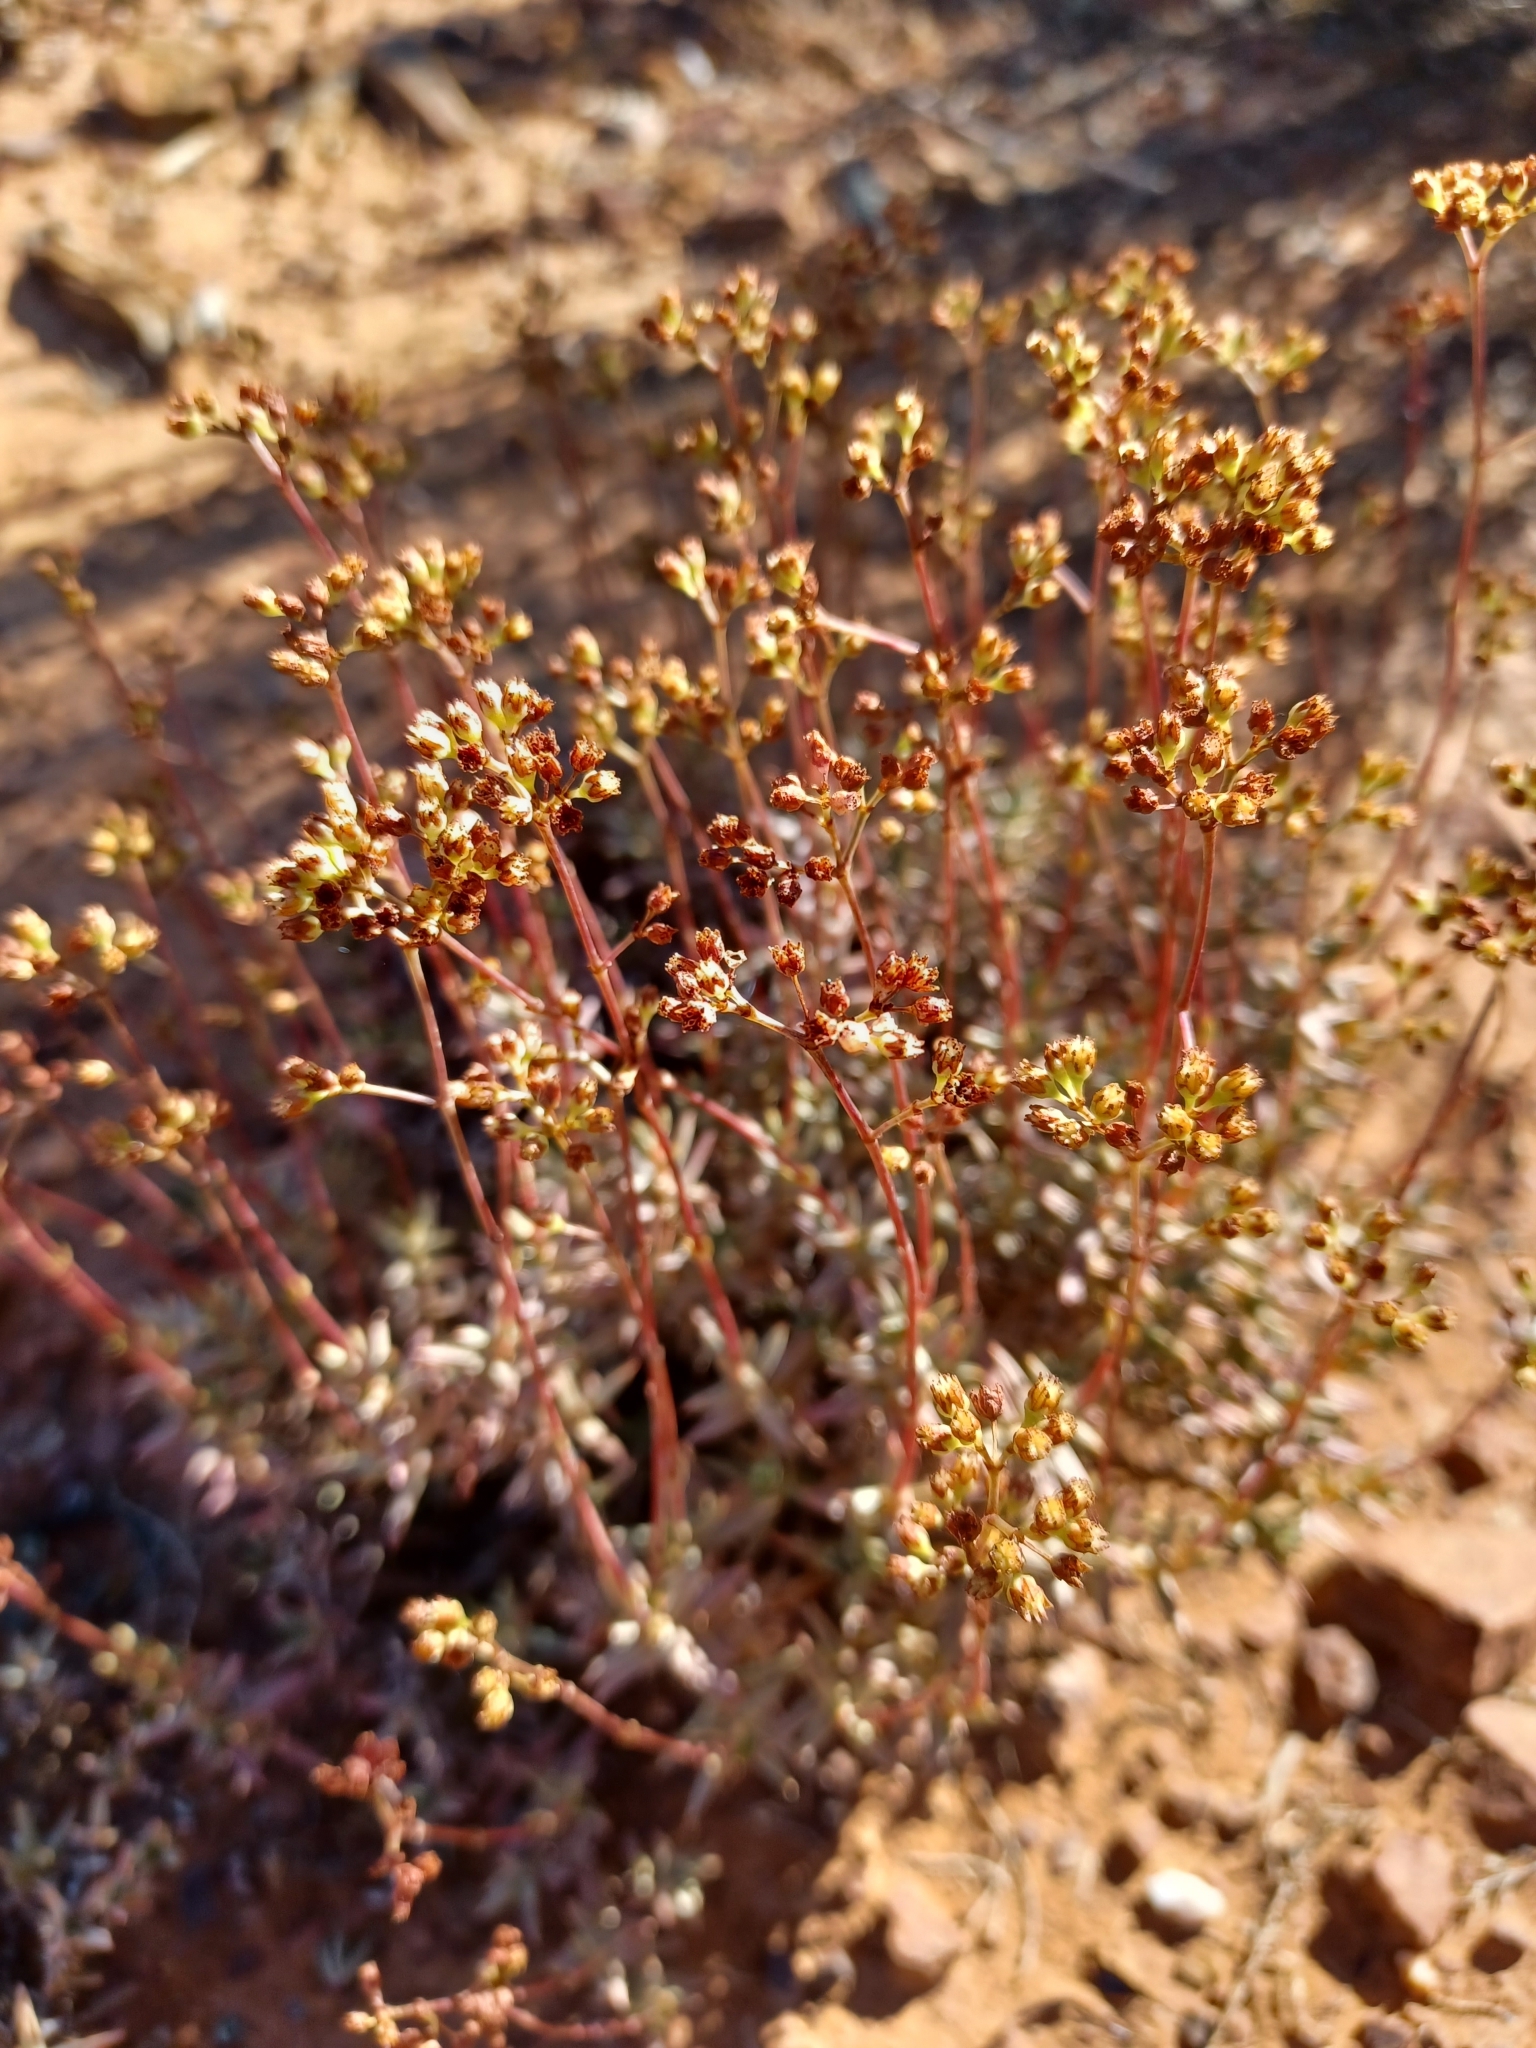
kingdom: Plantae
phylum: Tracheophyta
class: Magnoliopsida
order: Saxifragales
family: Crassulaceae
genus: Crassula
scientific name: Crassula tetragona
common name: Pygmyweed
